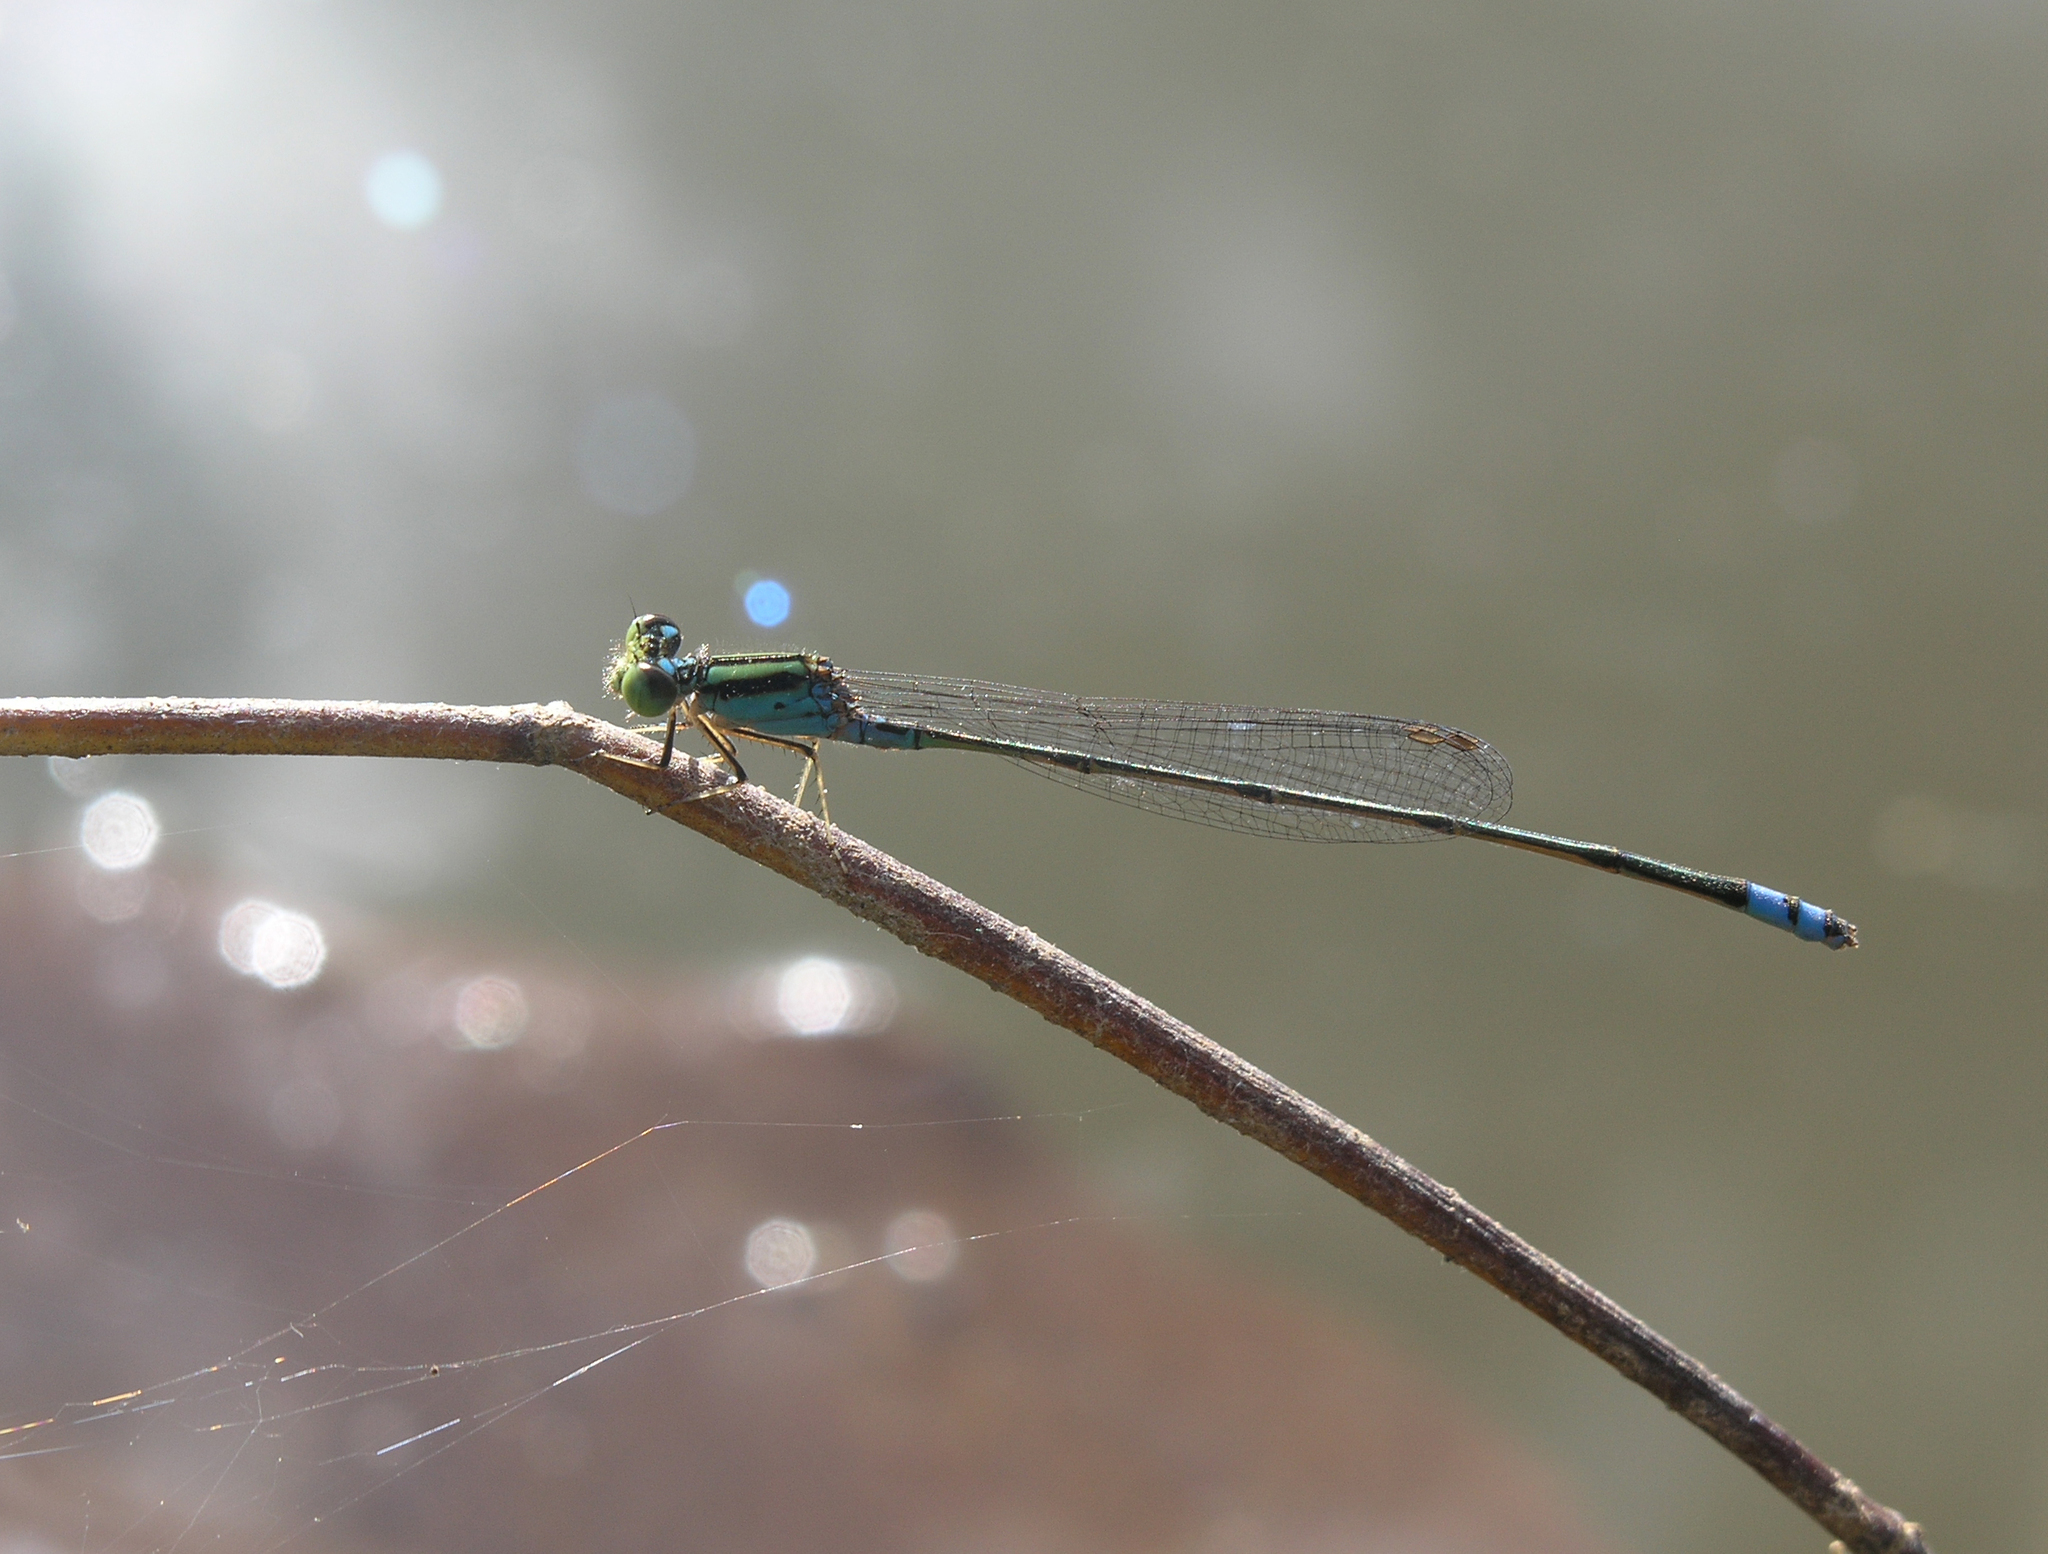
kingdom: Animalia
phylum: Arthropoda
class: Insecta
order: Odonata
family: Coenagrionidae
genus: Pseudagrion
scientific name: Pseudagrion williamsoni
